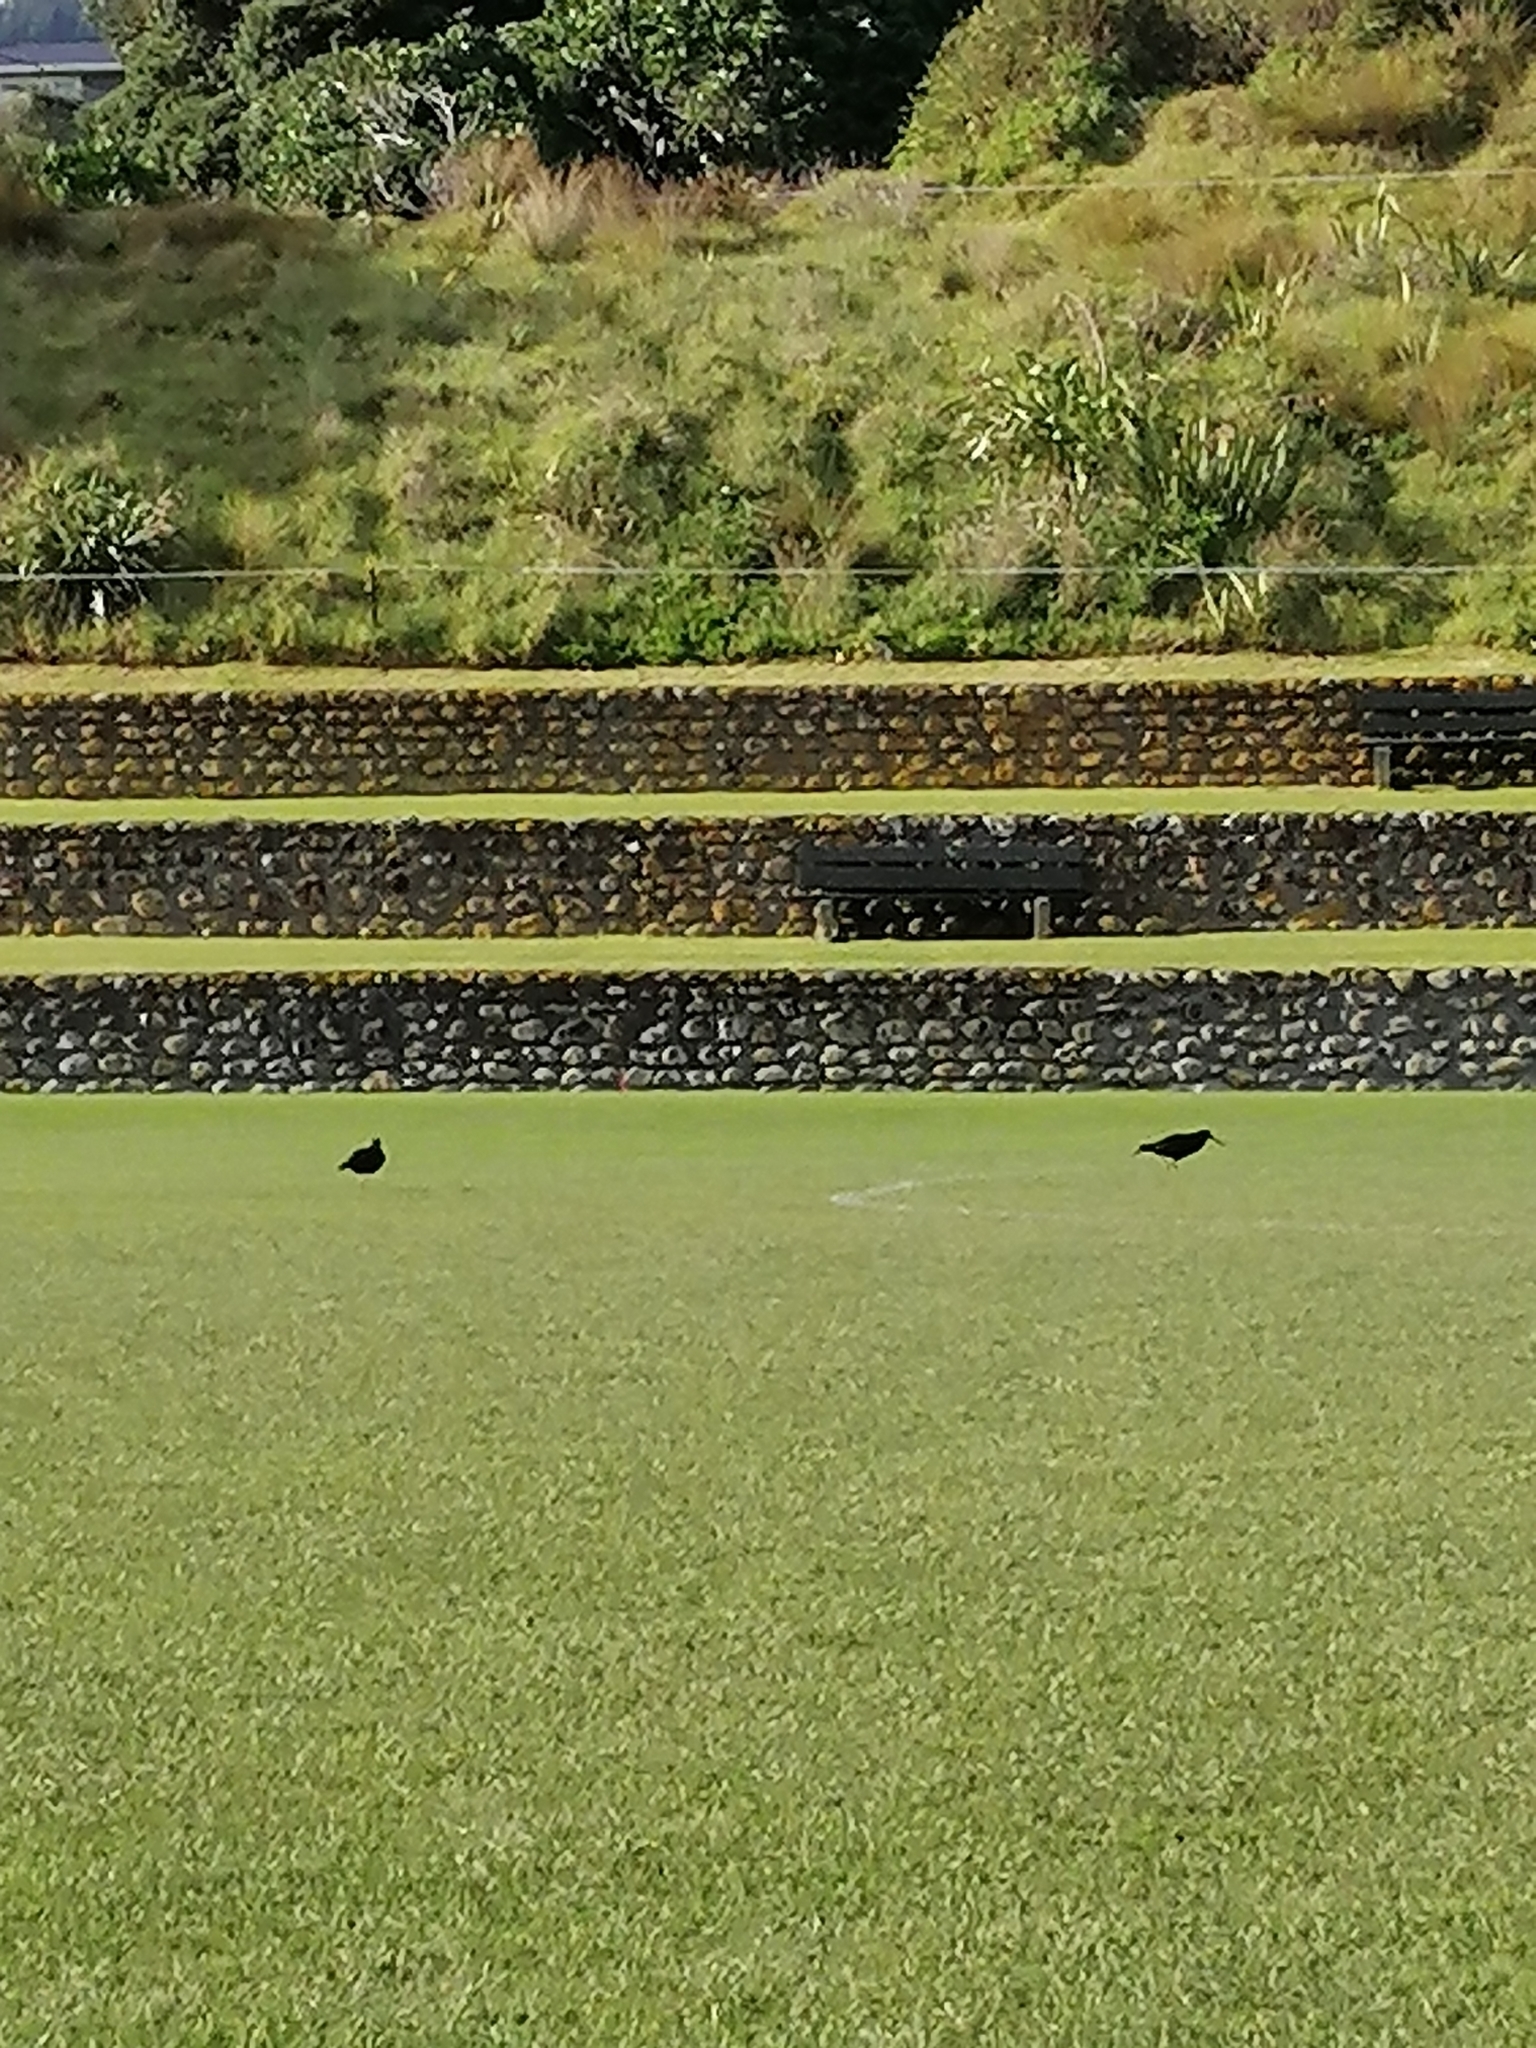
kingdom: Animalia
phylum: Chordata
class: Aves
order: Charadriiformes
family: Haematopodidae
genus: Haematopus
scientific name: Haematopus unicolor
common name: Variable oystercatcher
